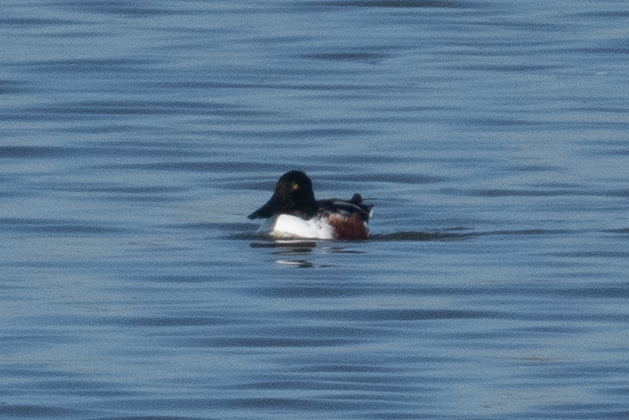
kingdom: Animalia
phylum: Chordata
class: Aves
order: Anseriformes
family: Anatidae
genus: Spatula
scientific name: Spatula clypeata
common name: Northern shoveler
